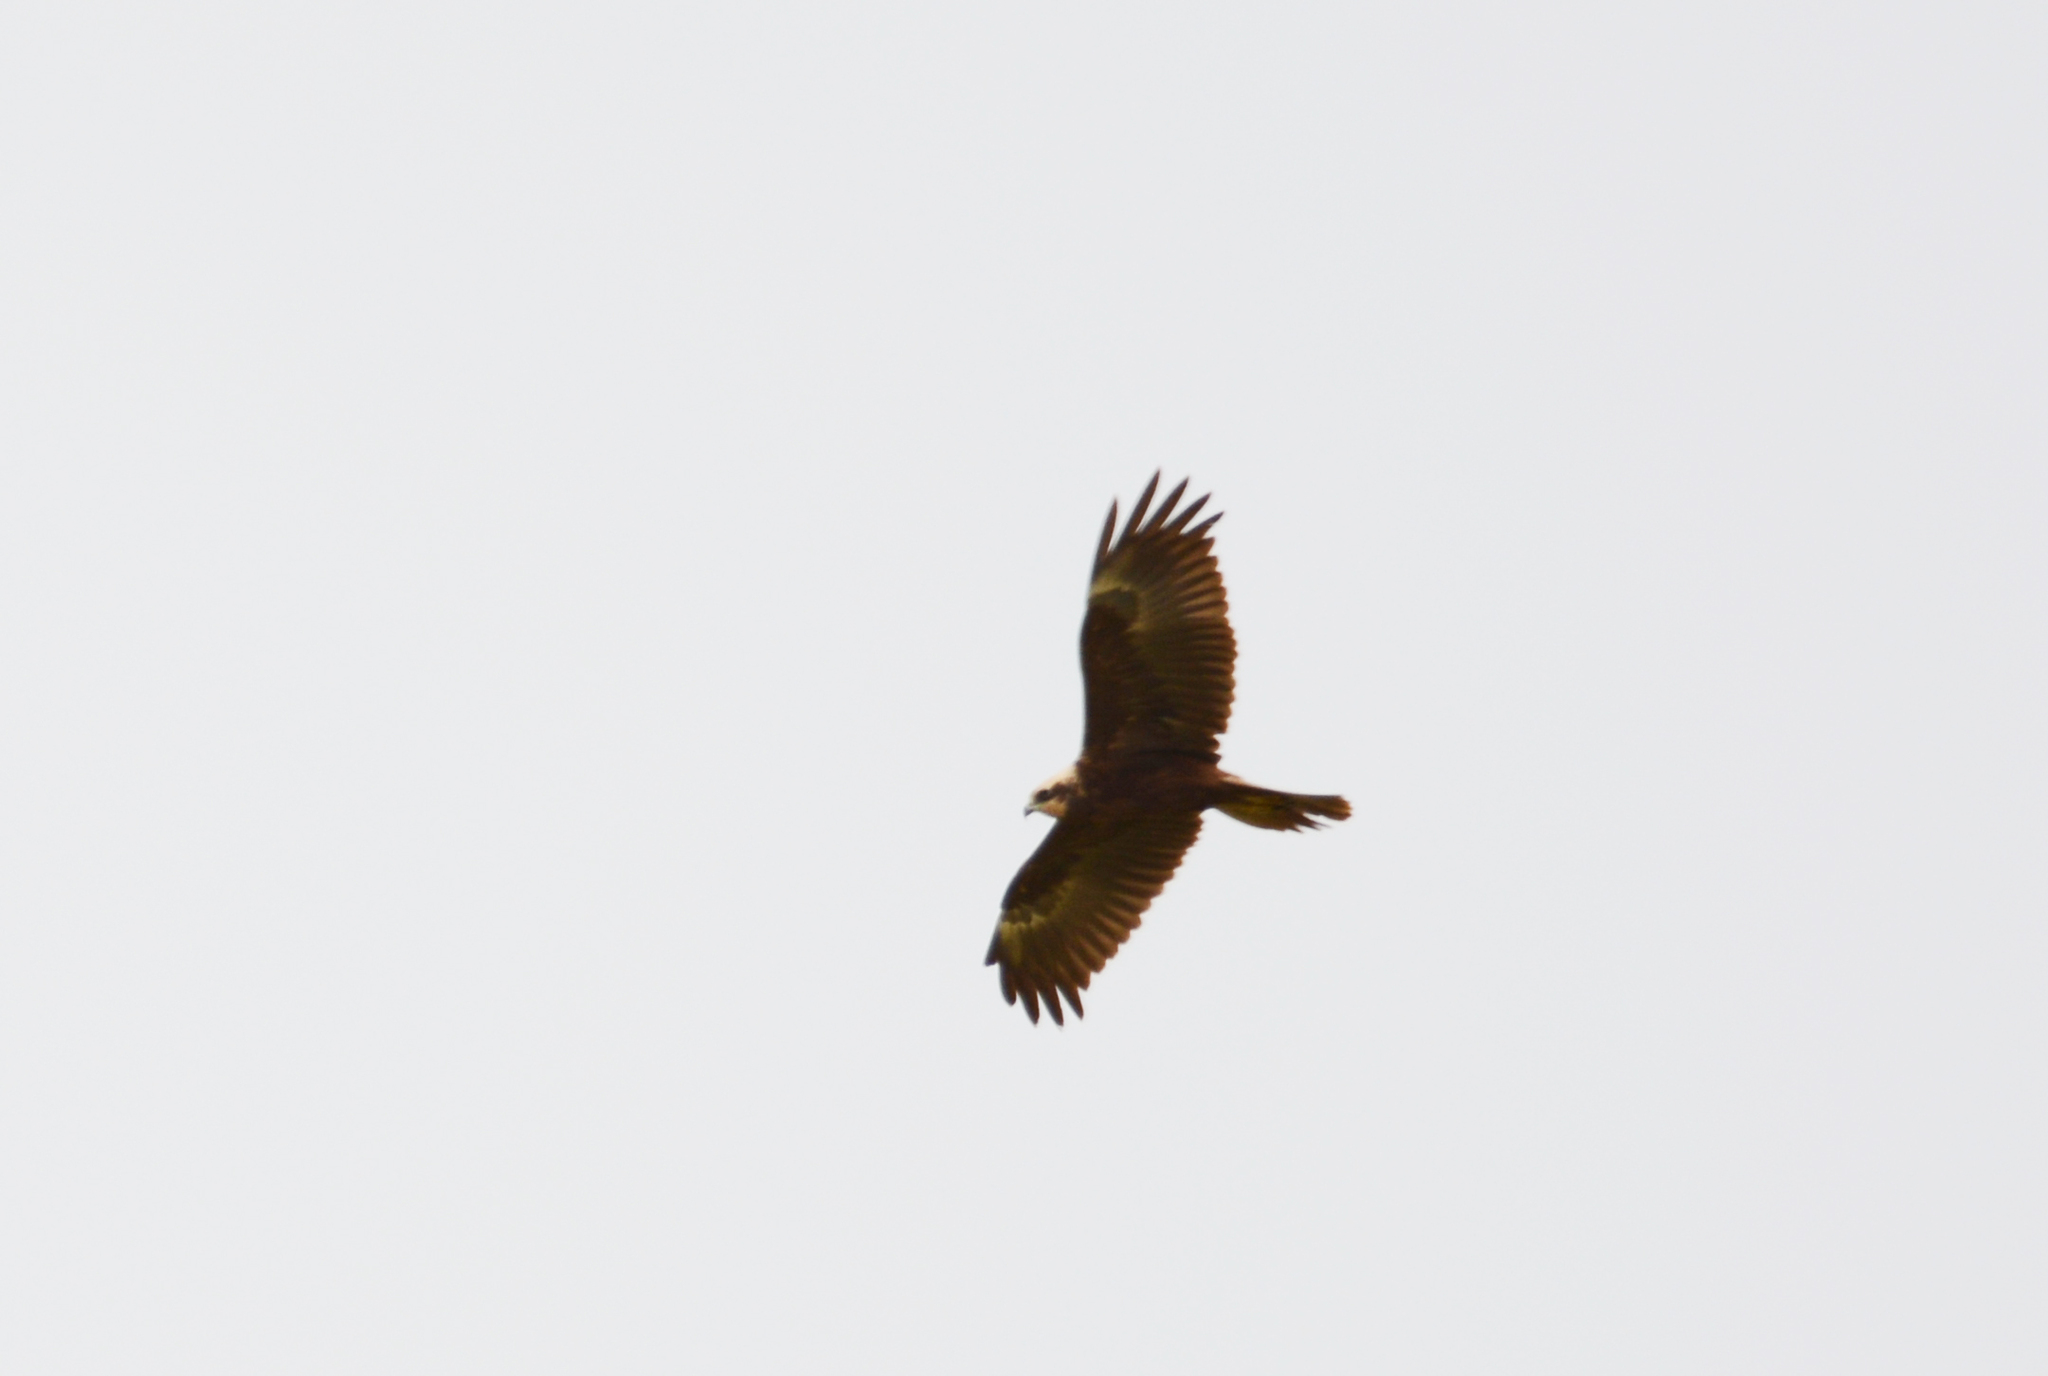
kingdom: Animalia
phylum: Chordata
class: Aves
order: Accipitriformes
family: Accipitridae
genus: Circus
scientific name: Circus aeruginosus
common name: Western marsh harrier
